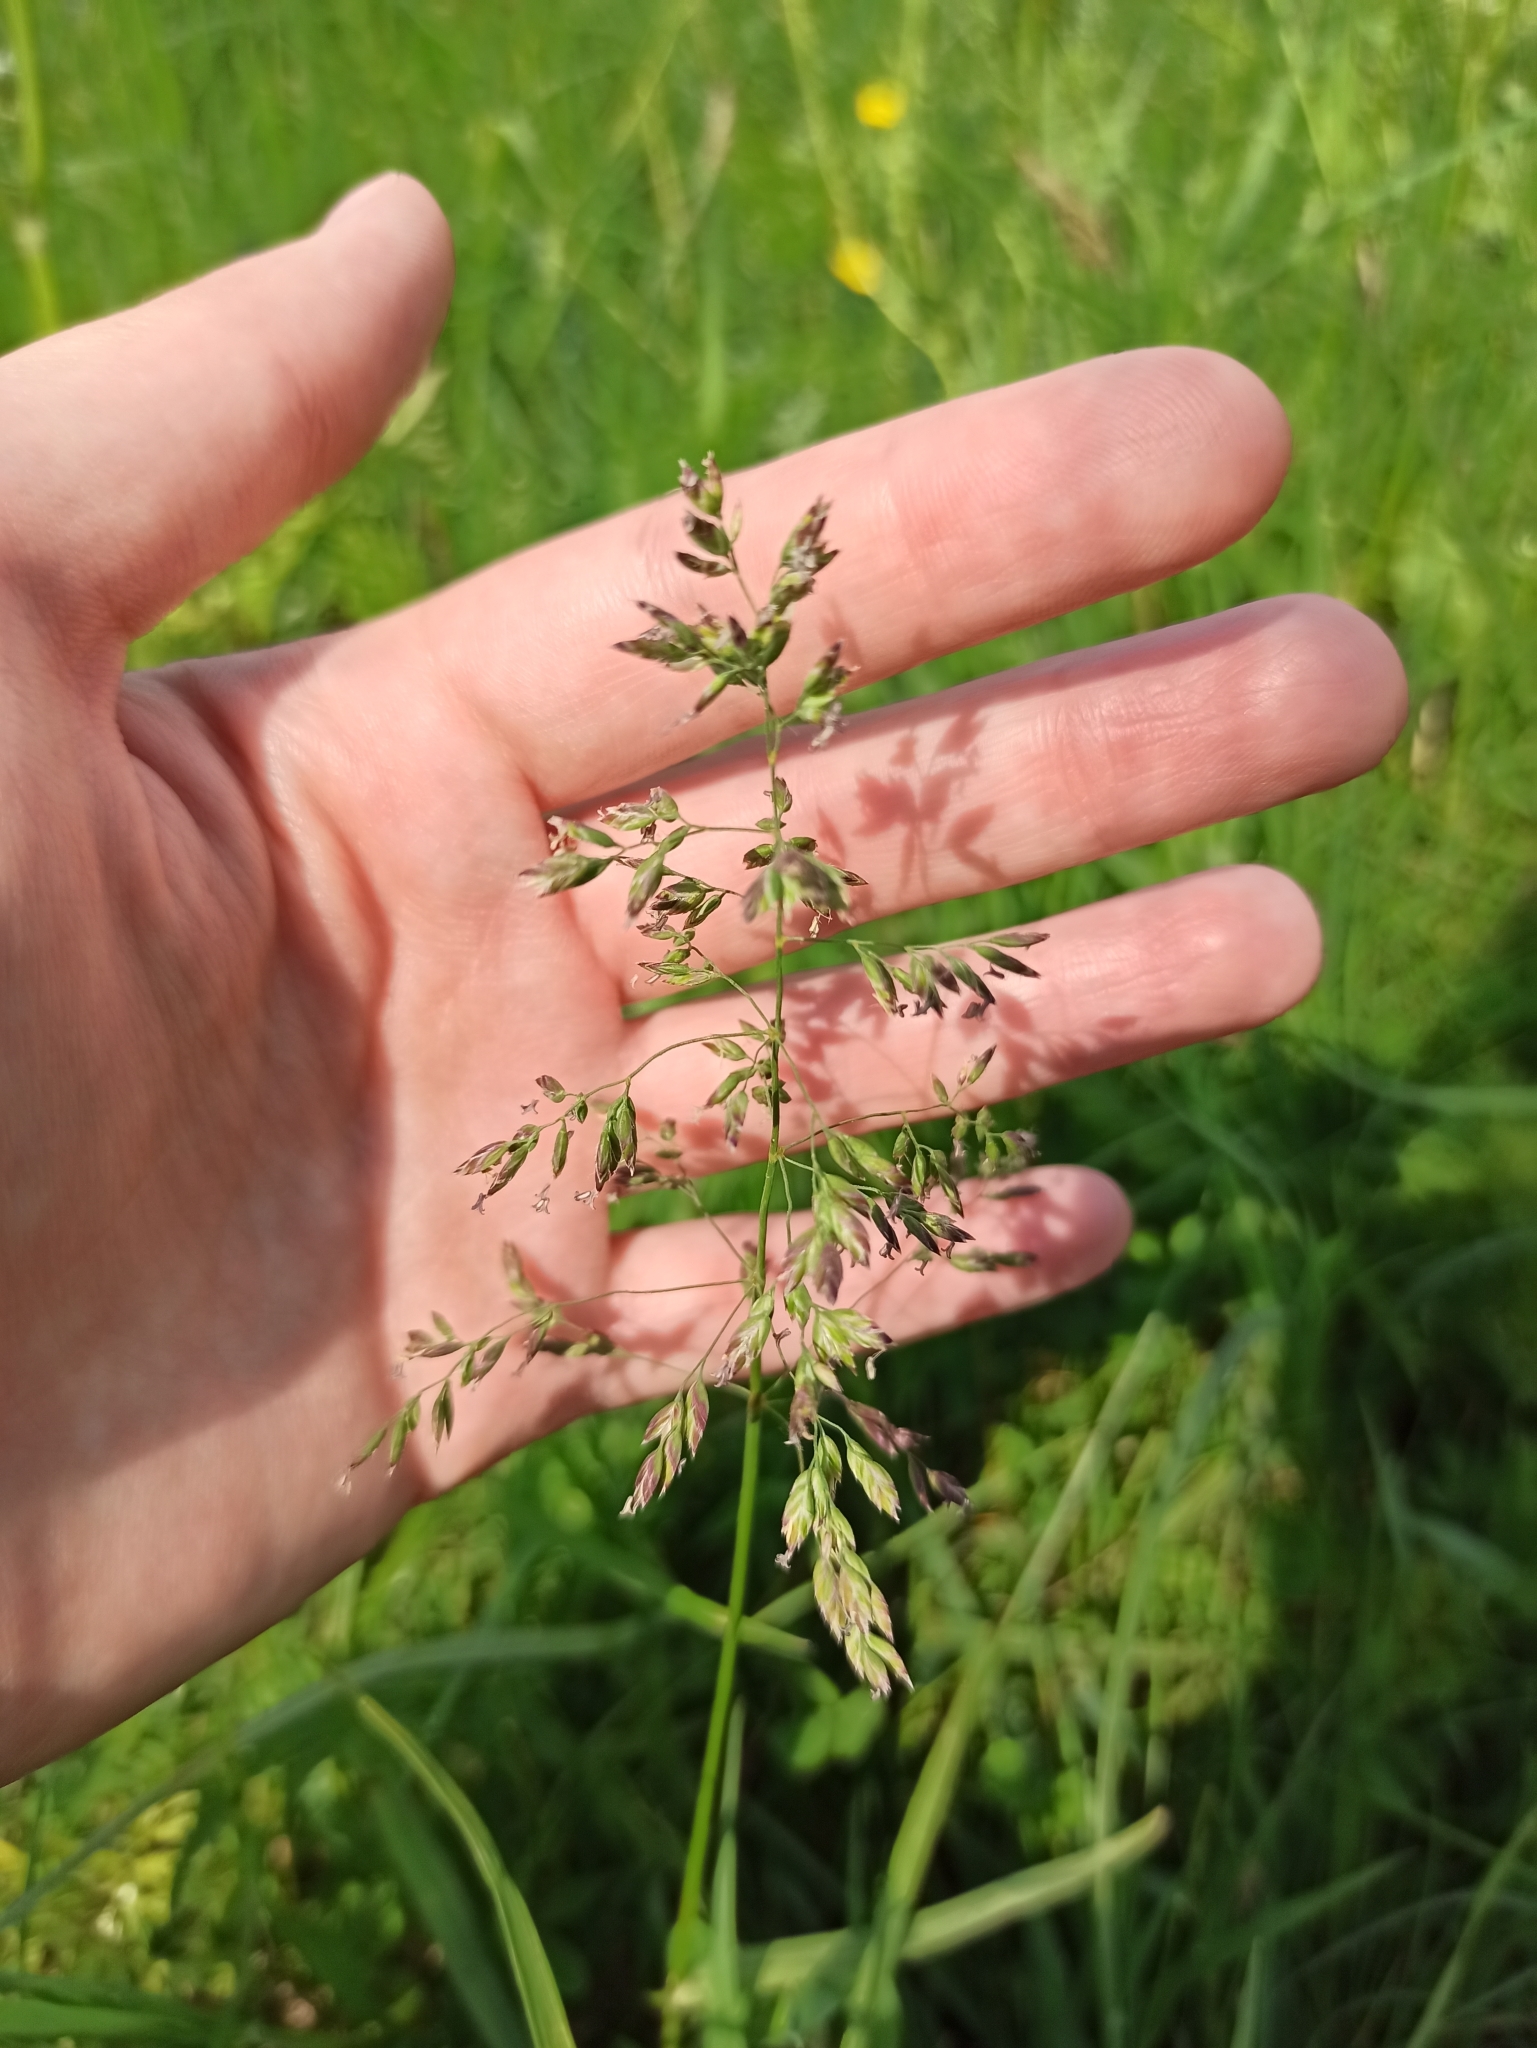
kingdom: Plantae
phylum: Tracheophyta
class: Liliopsida
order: Poales
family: Poaceae
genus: Poa
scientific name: Poa pratensis
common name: Kentucky bluegrass
